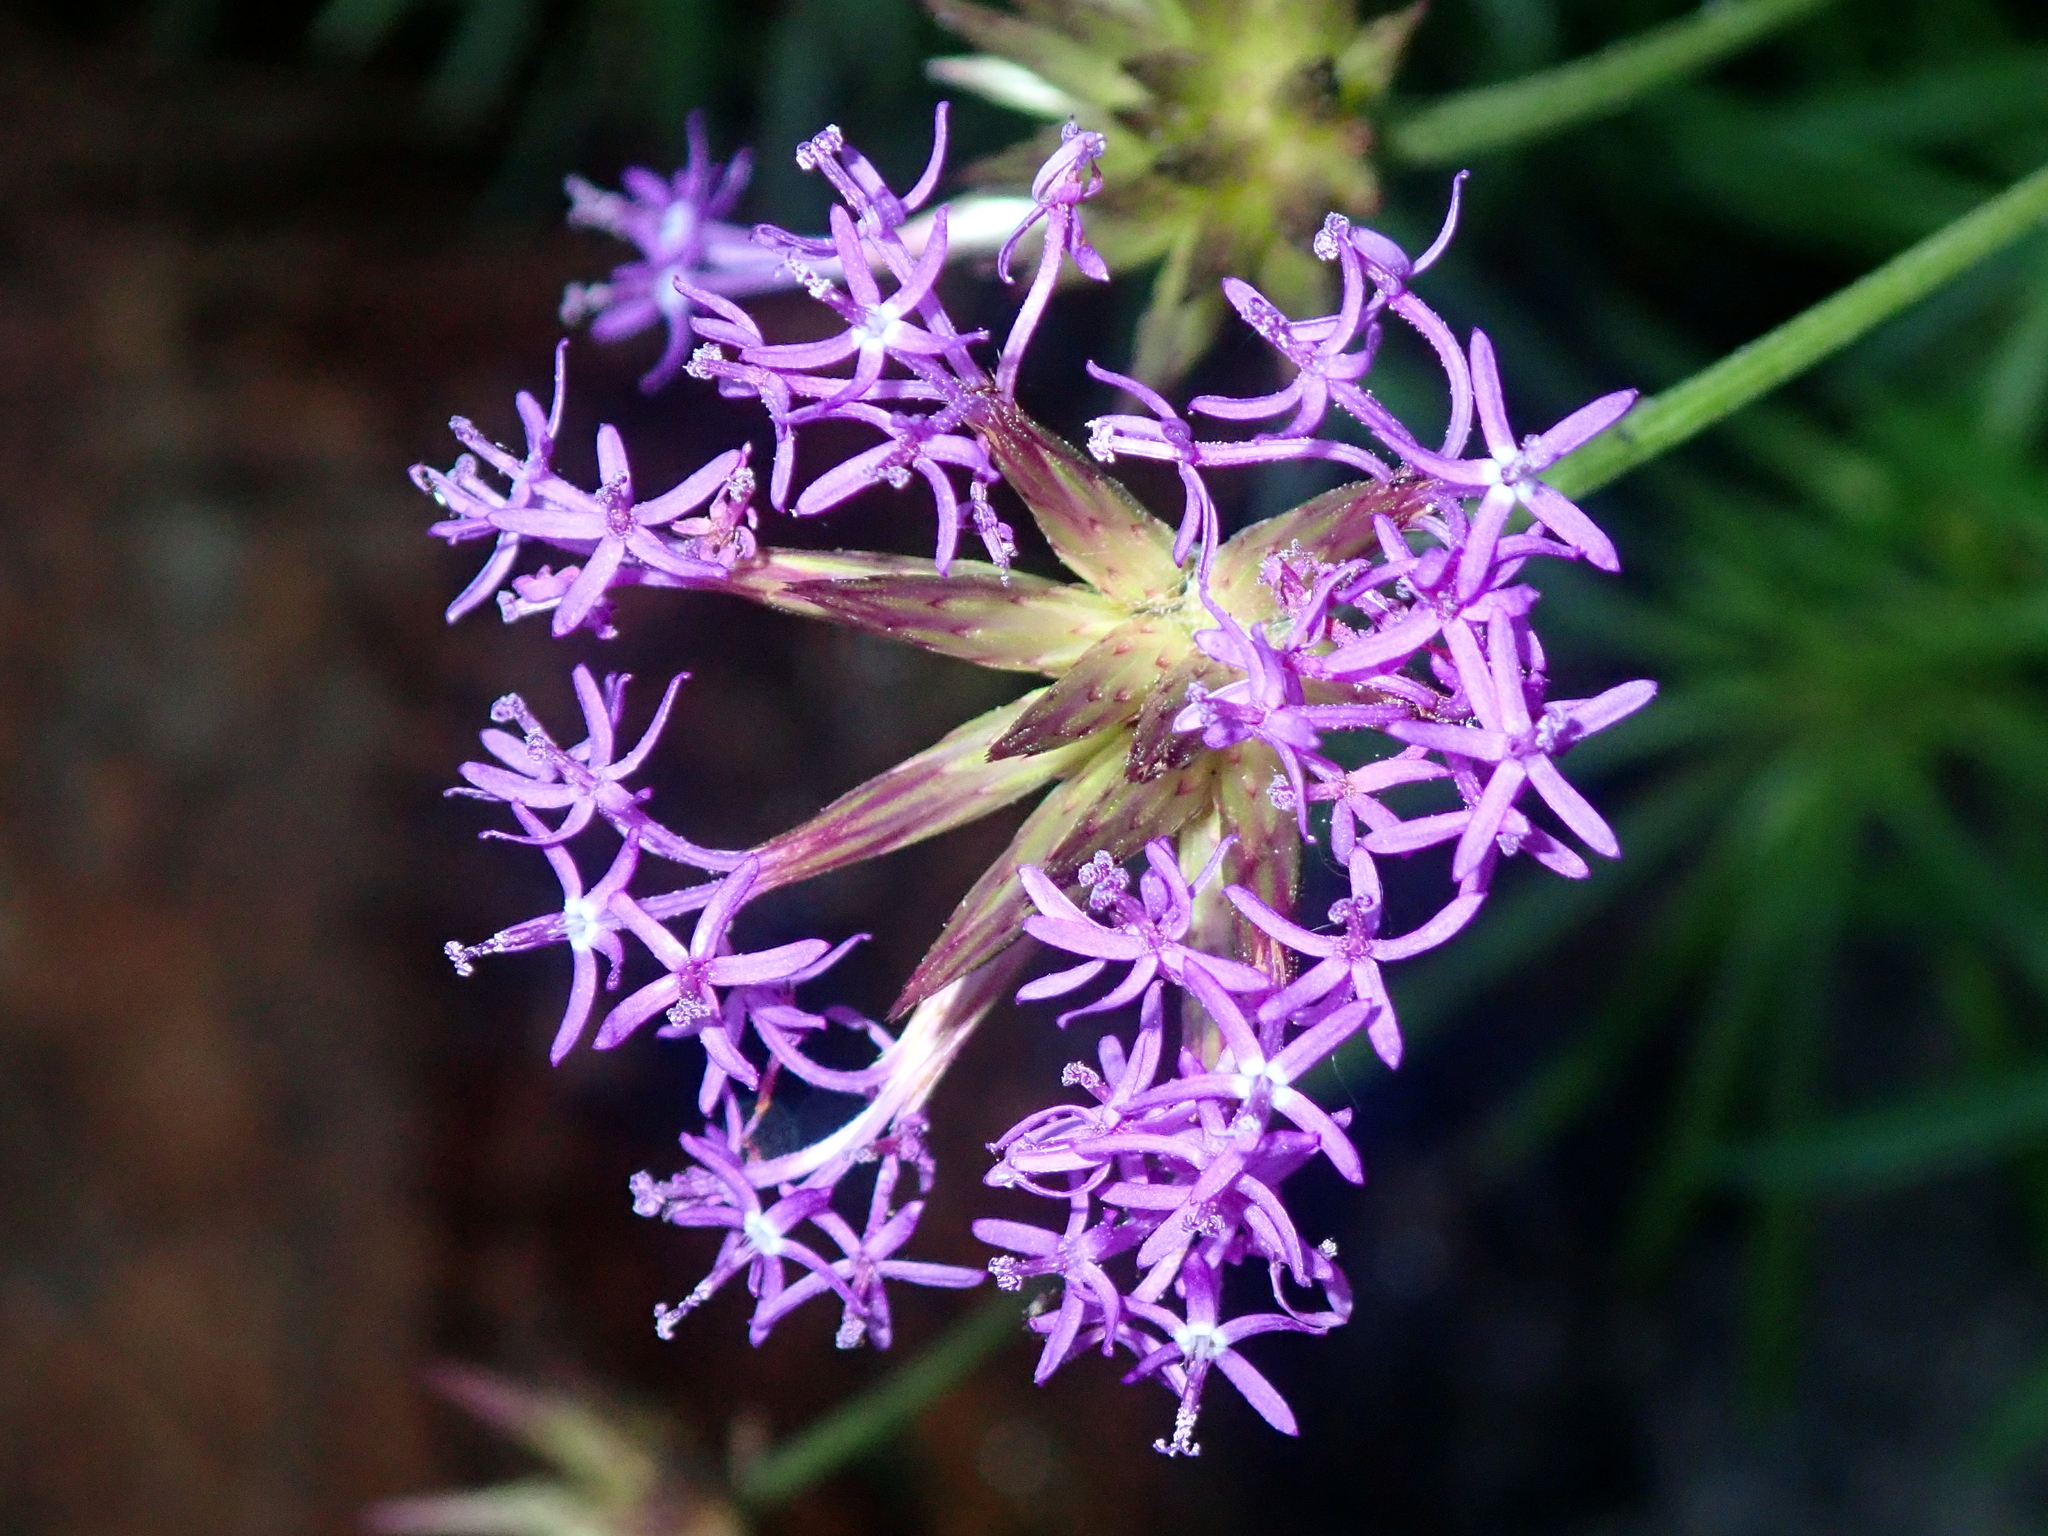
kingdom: Plantae
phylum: Tracheophyta
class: Magnoliopsida
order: Asterales
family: Asteraceae
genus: Chresta
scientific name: Chresta angustifolia
